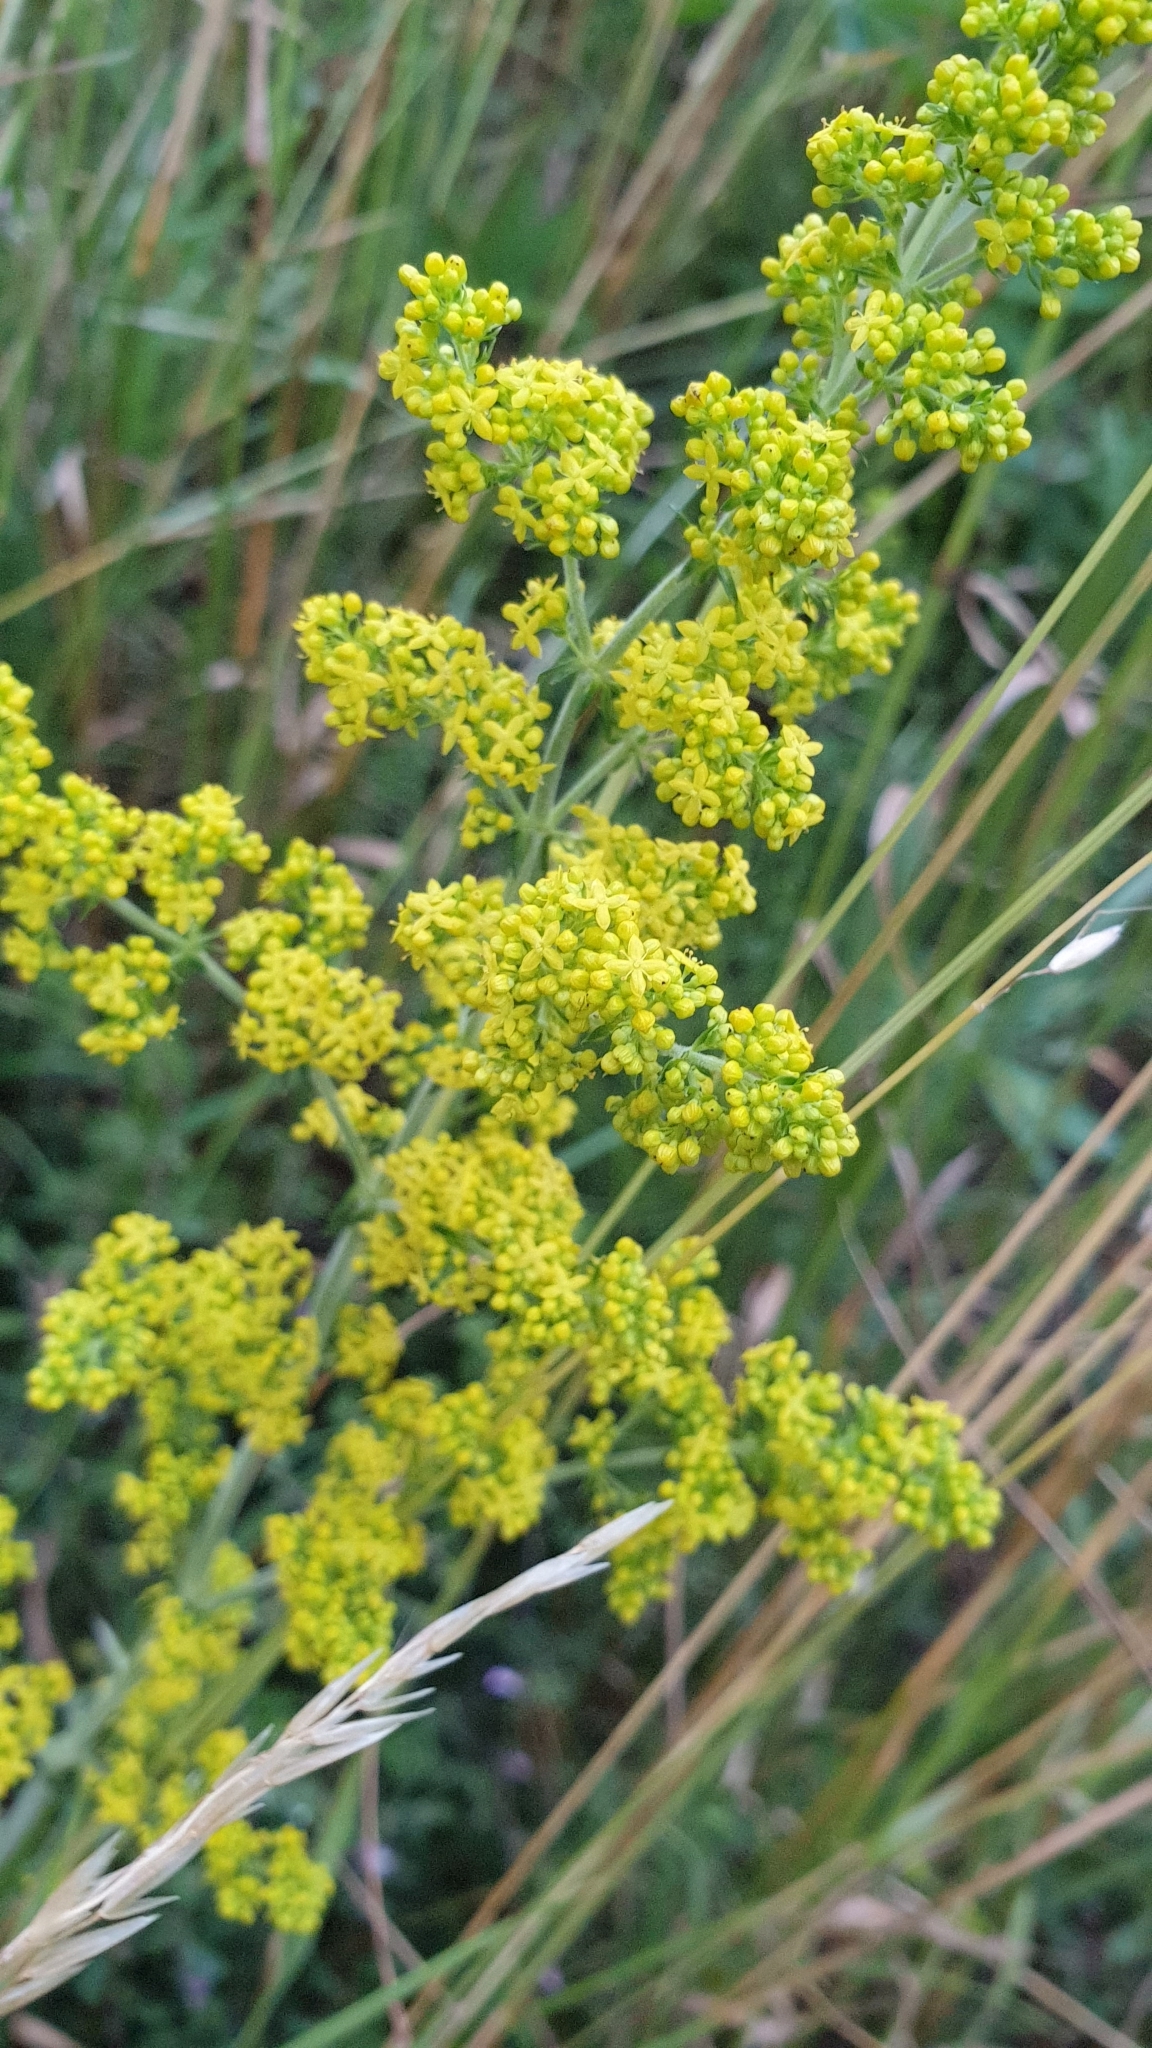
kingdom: Plantae
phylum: Tracheophyta
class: Magnoliopsida
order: Gentianales
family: Rubiaceae
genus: Galium
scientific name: Galium verum
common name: Lady's bedstraw
